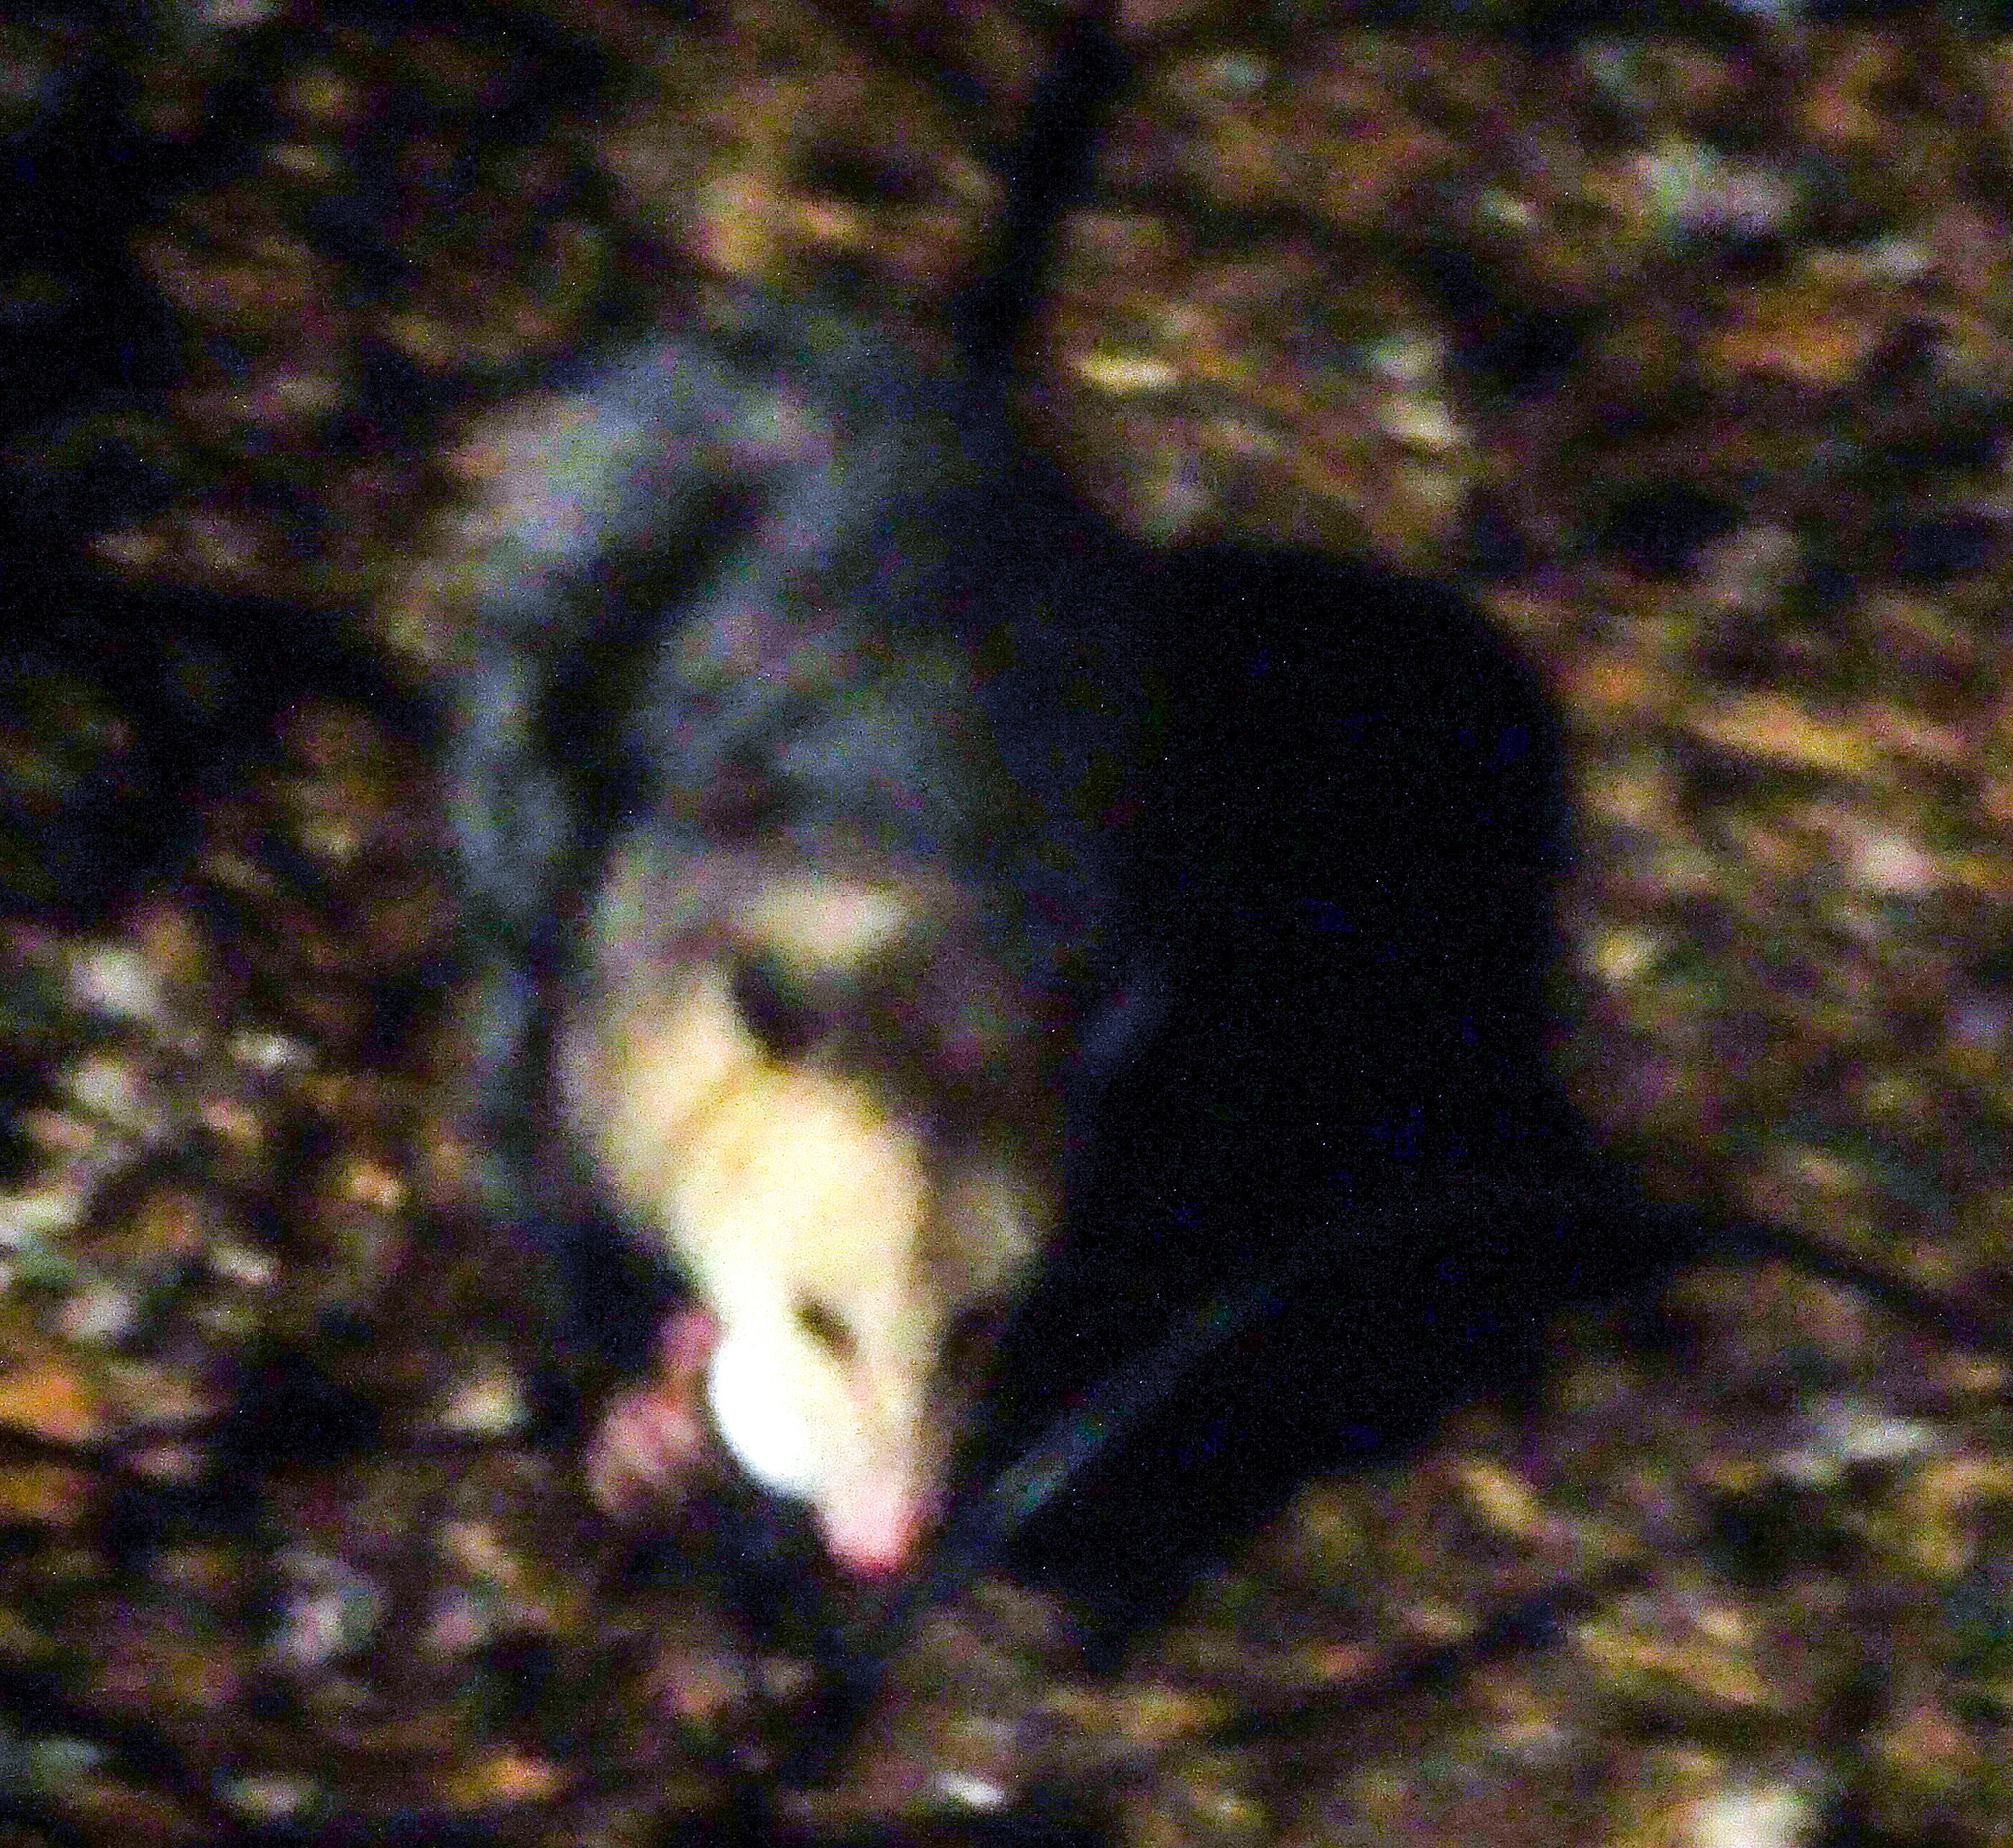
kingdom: Animalia
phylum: Chordata
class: Mammalia
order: Didelphimorphia
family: Didelphidae
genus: Didelphis
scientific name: Didelphis virginiana
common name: Virginia opossum
